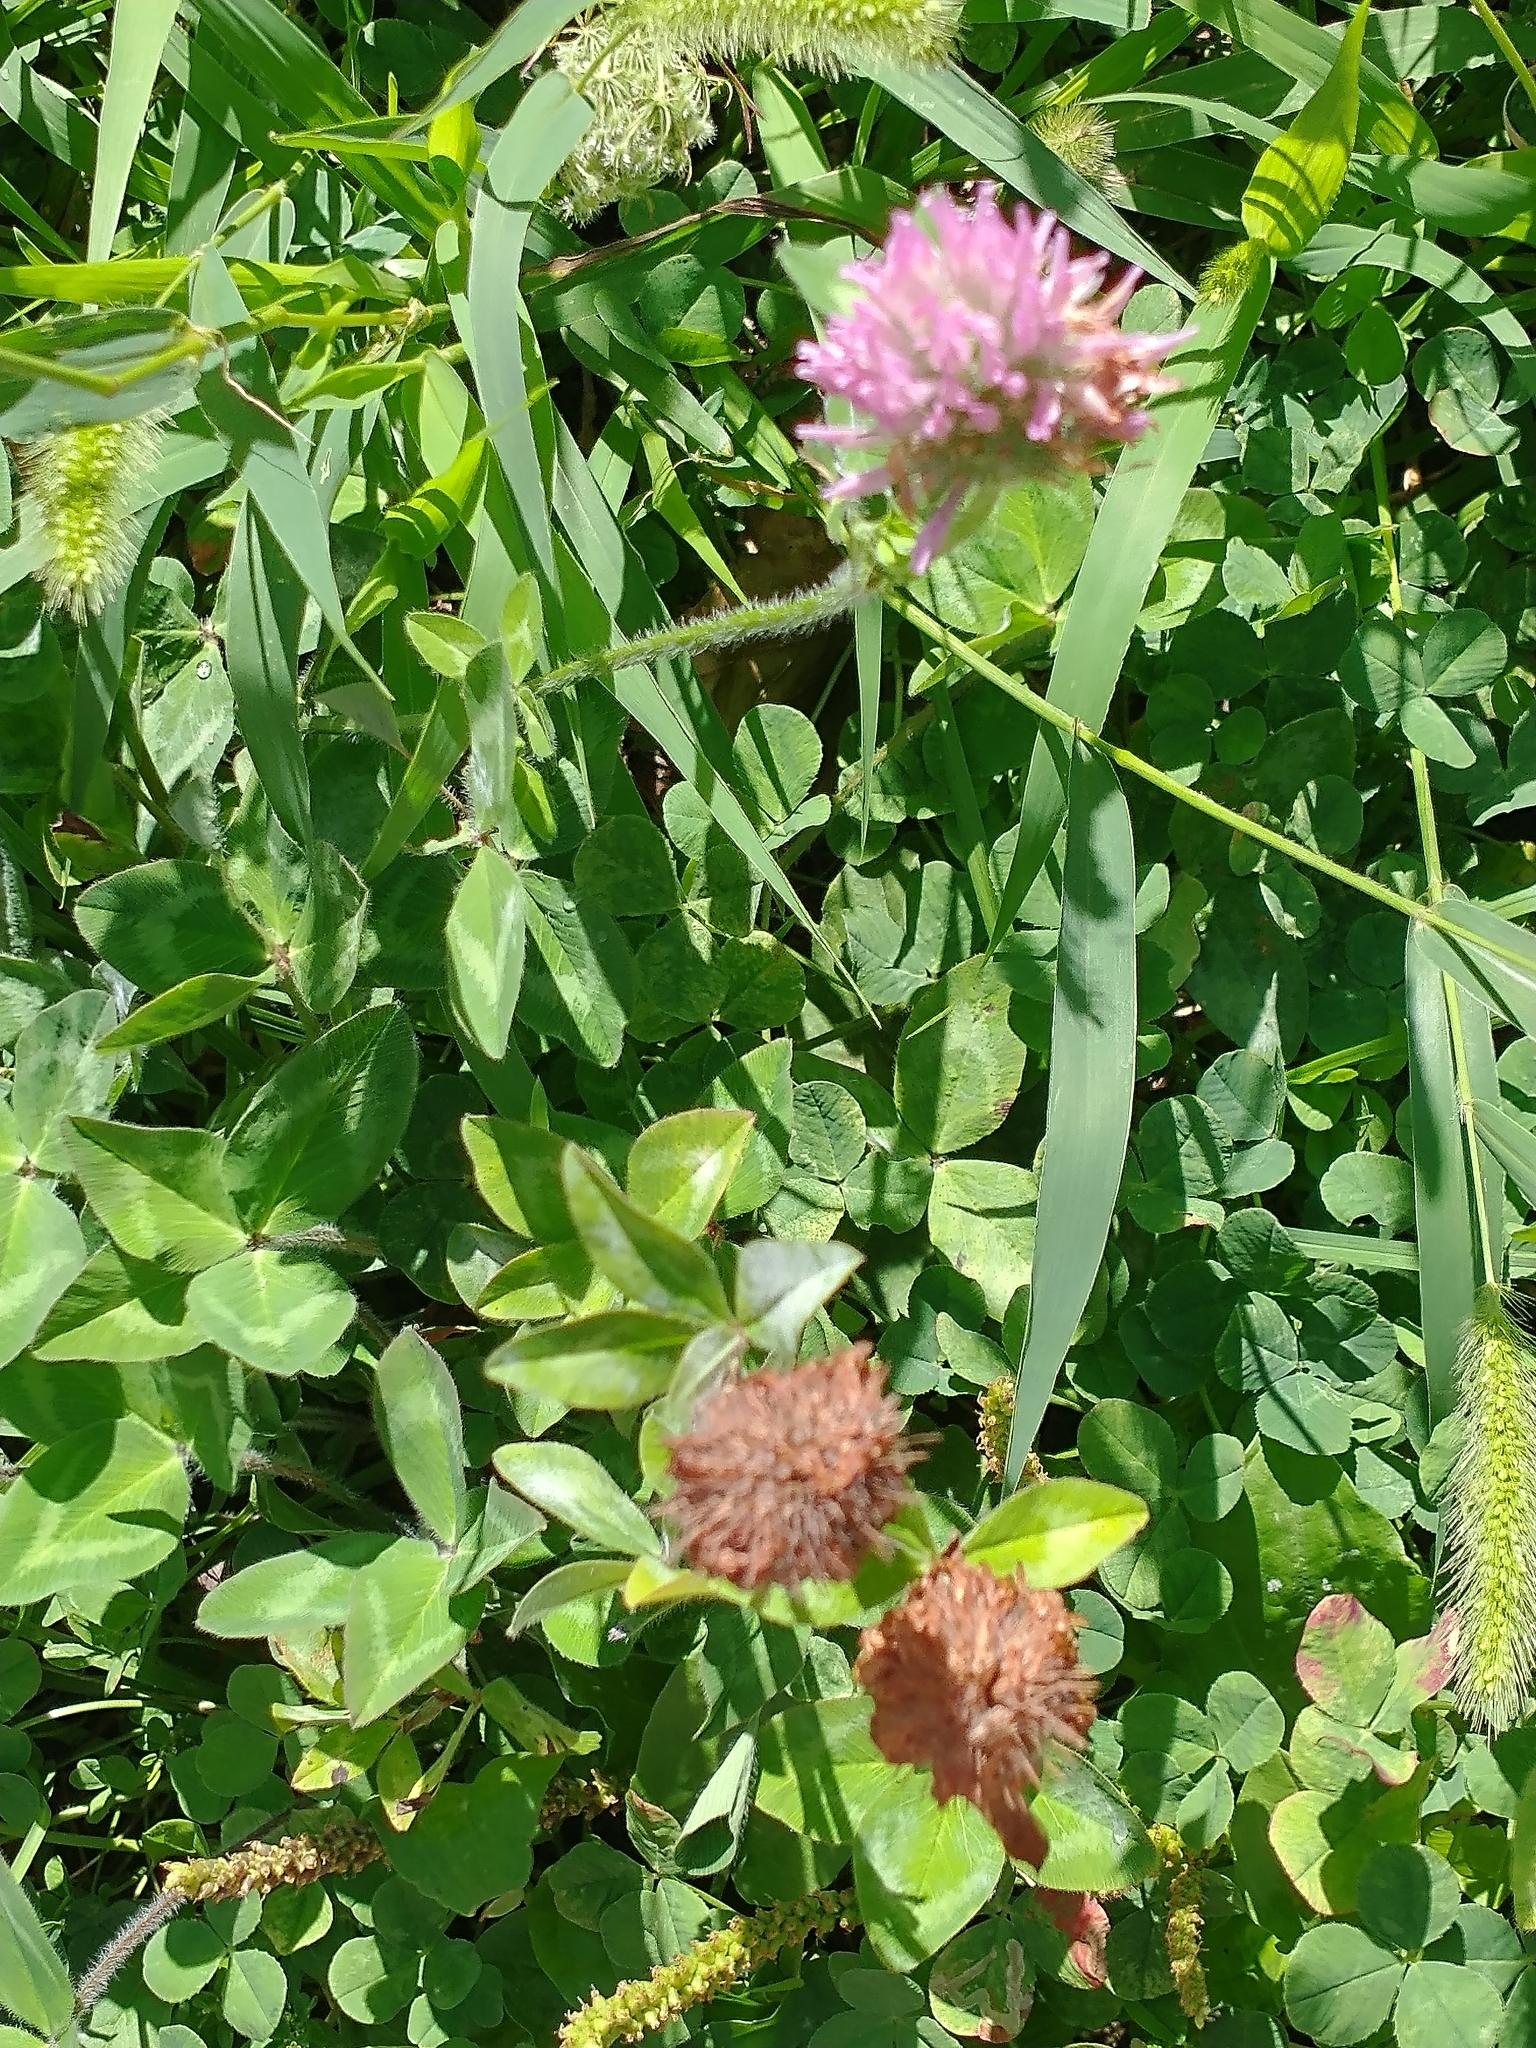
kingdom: Plantae
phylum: Tracheophyta
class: Magnoliopsida
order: Fabales
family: Fabaceae
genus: Trifolium
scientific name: Trifolium pratense
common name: Red clover
